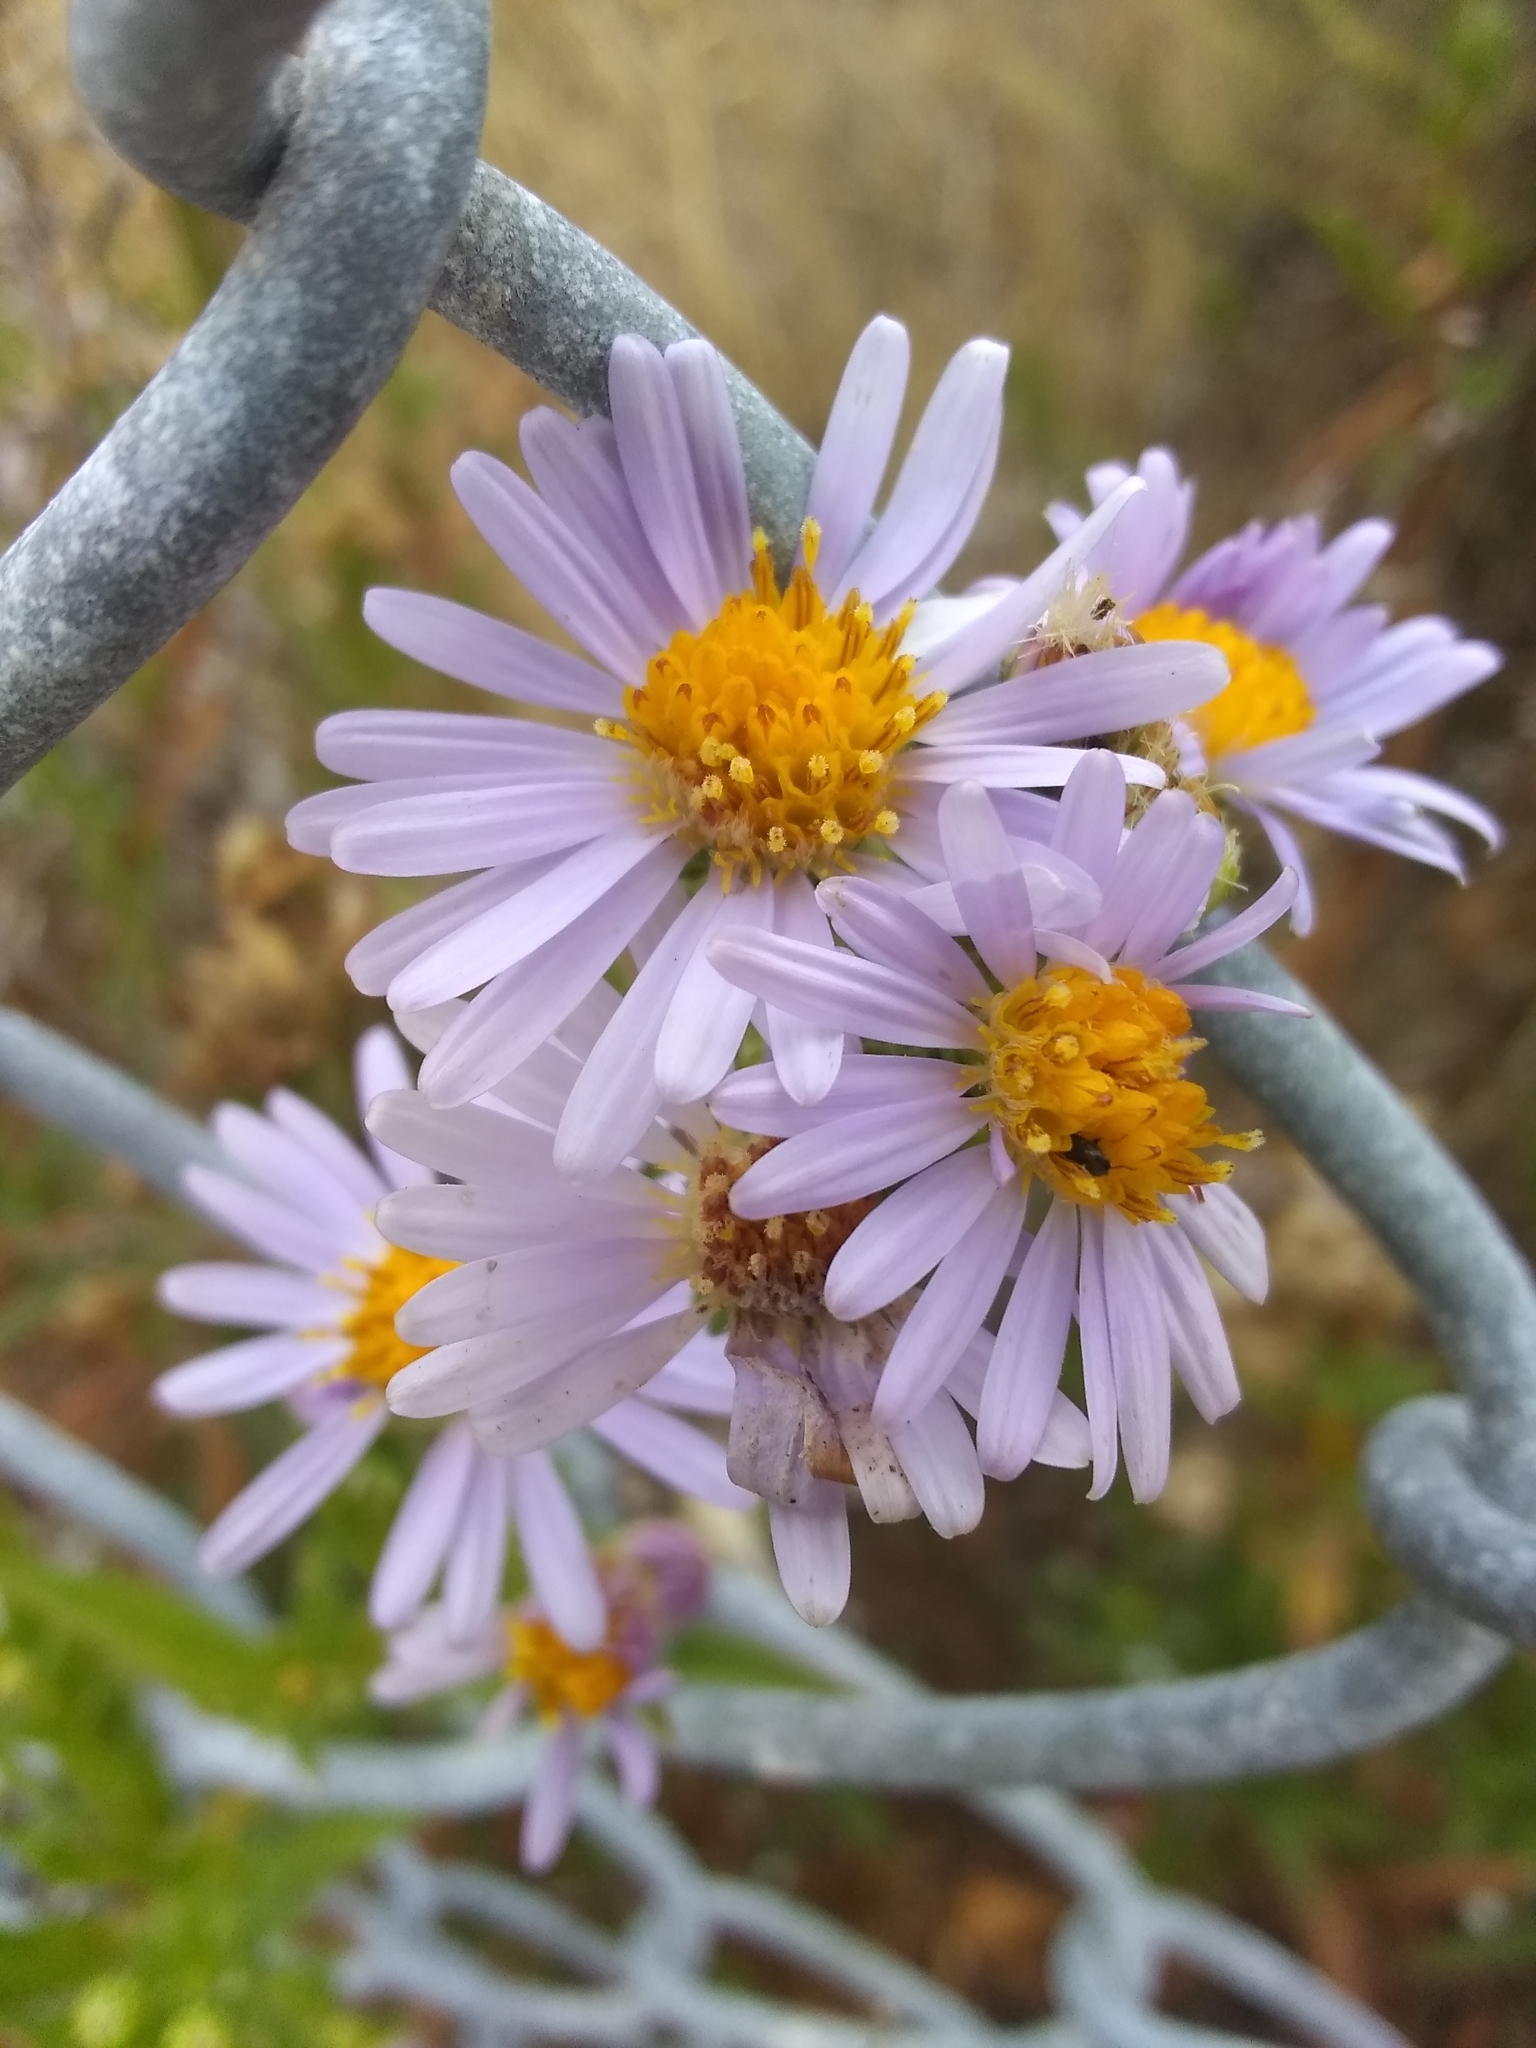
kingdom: Plantae
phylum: Tracheophyta
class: Magnoliopsida
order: Asterales
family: Asteraceae
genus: Symphyotrichum
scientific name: Symphyotrichum chilense
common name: Pacific aster
